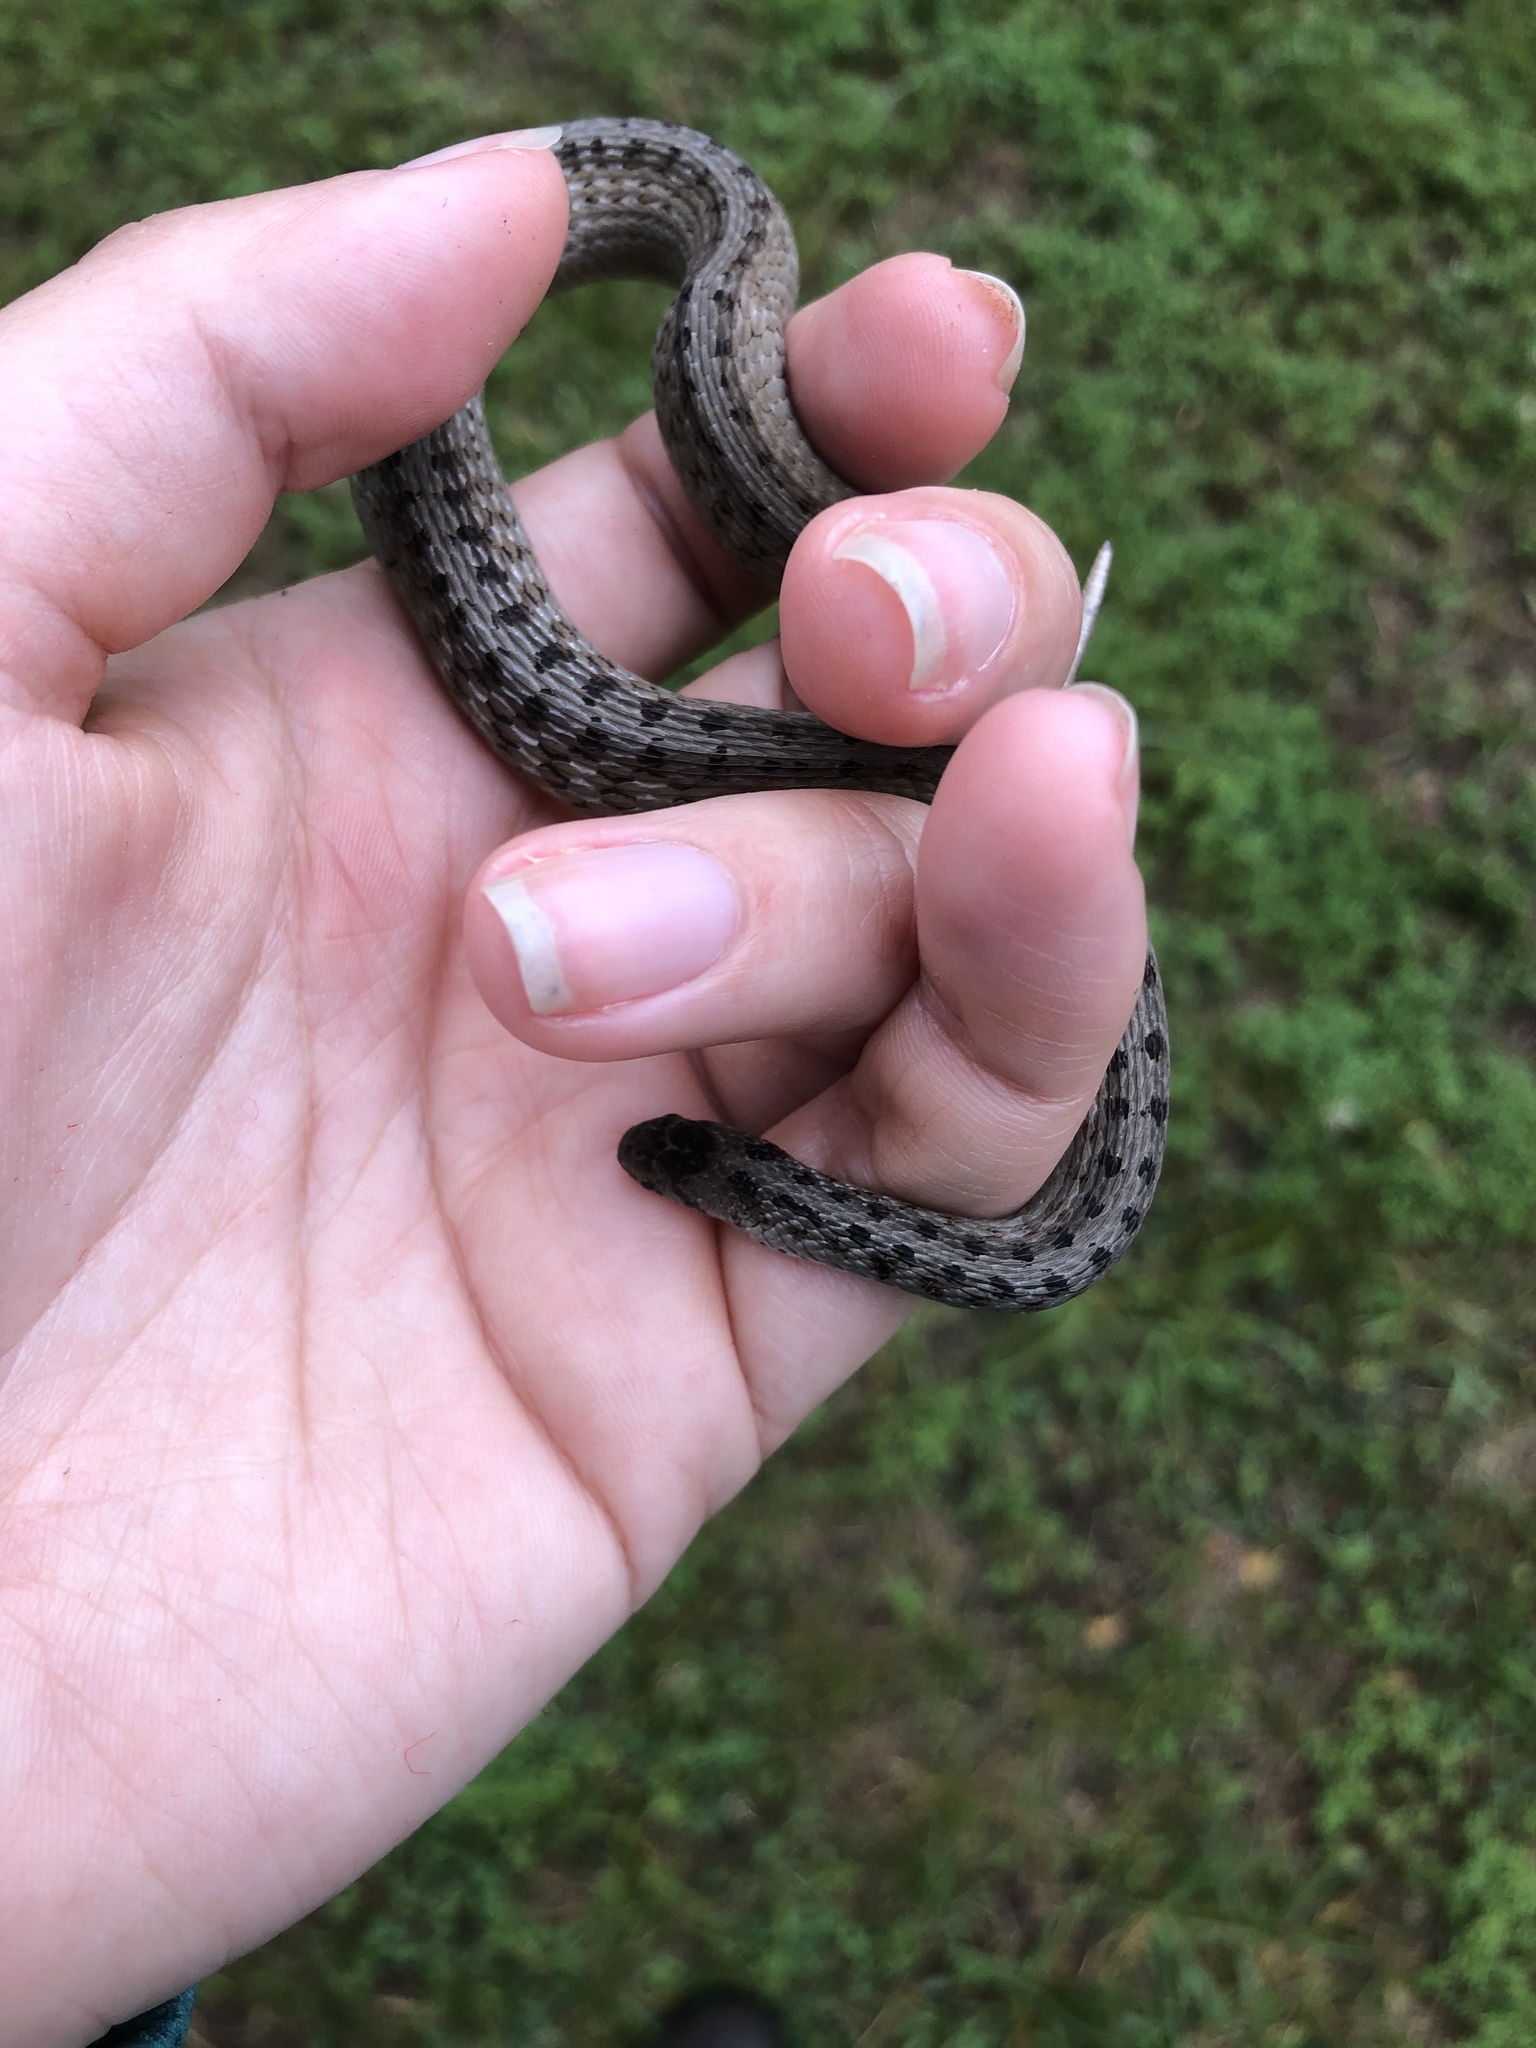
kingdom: Animalia
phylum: Chordata
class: Squamata
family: Colubridae
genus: Storeria
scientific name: Storeria dekayi
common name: (dekay’s) brown snake
